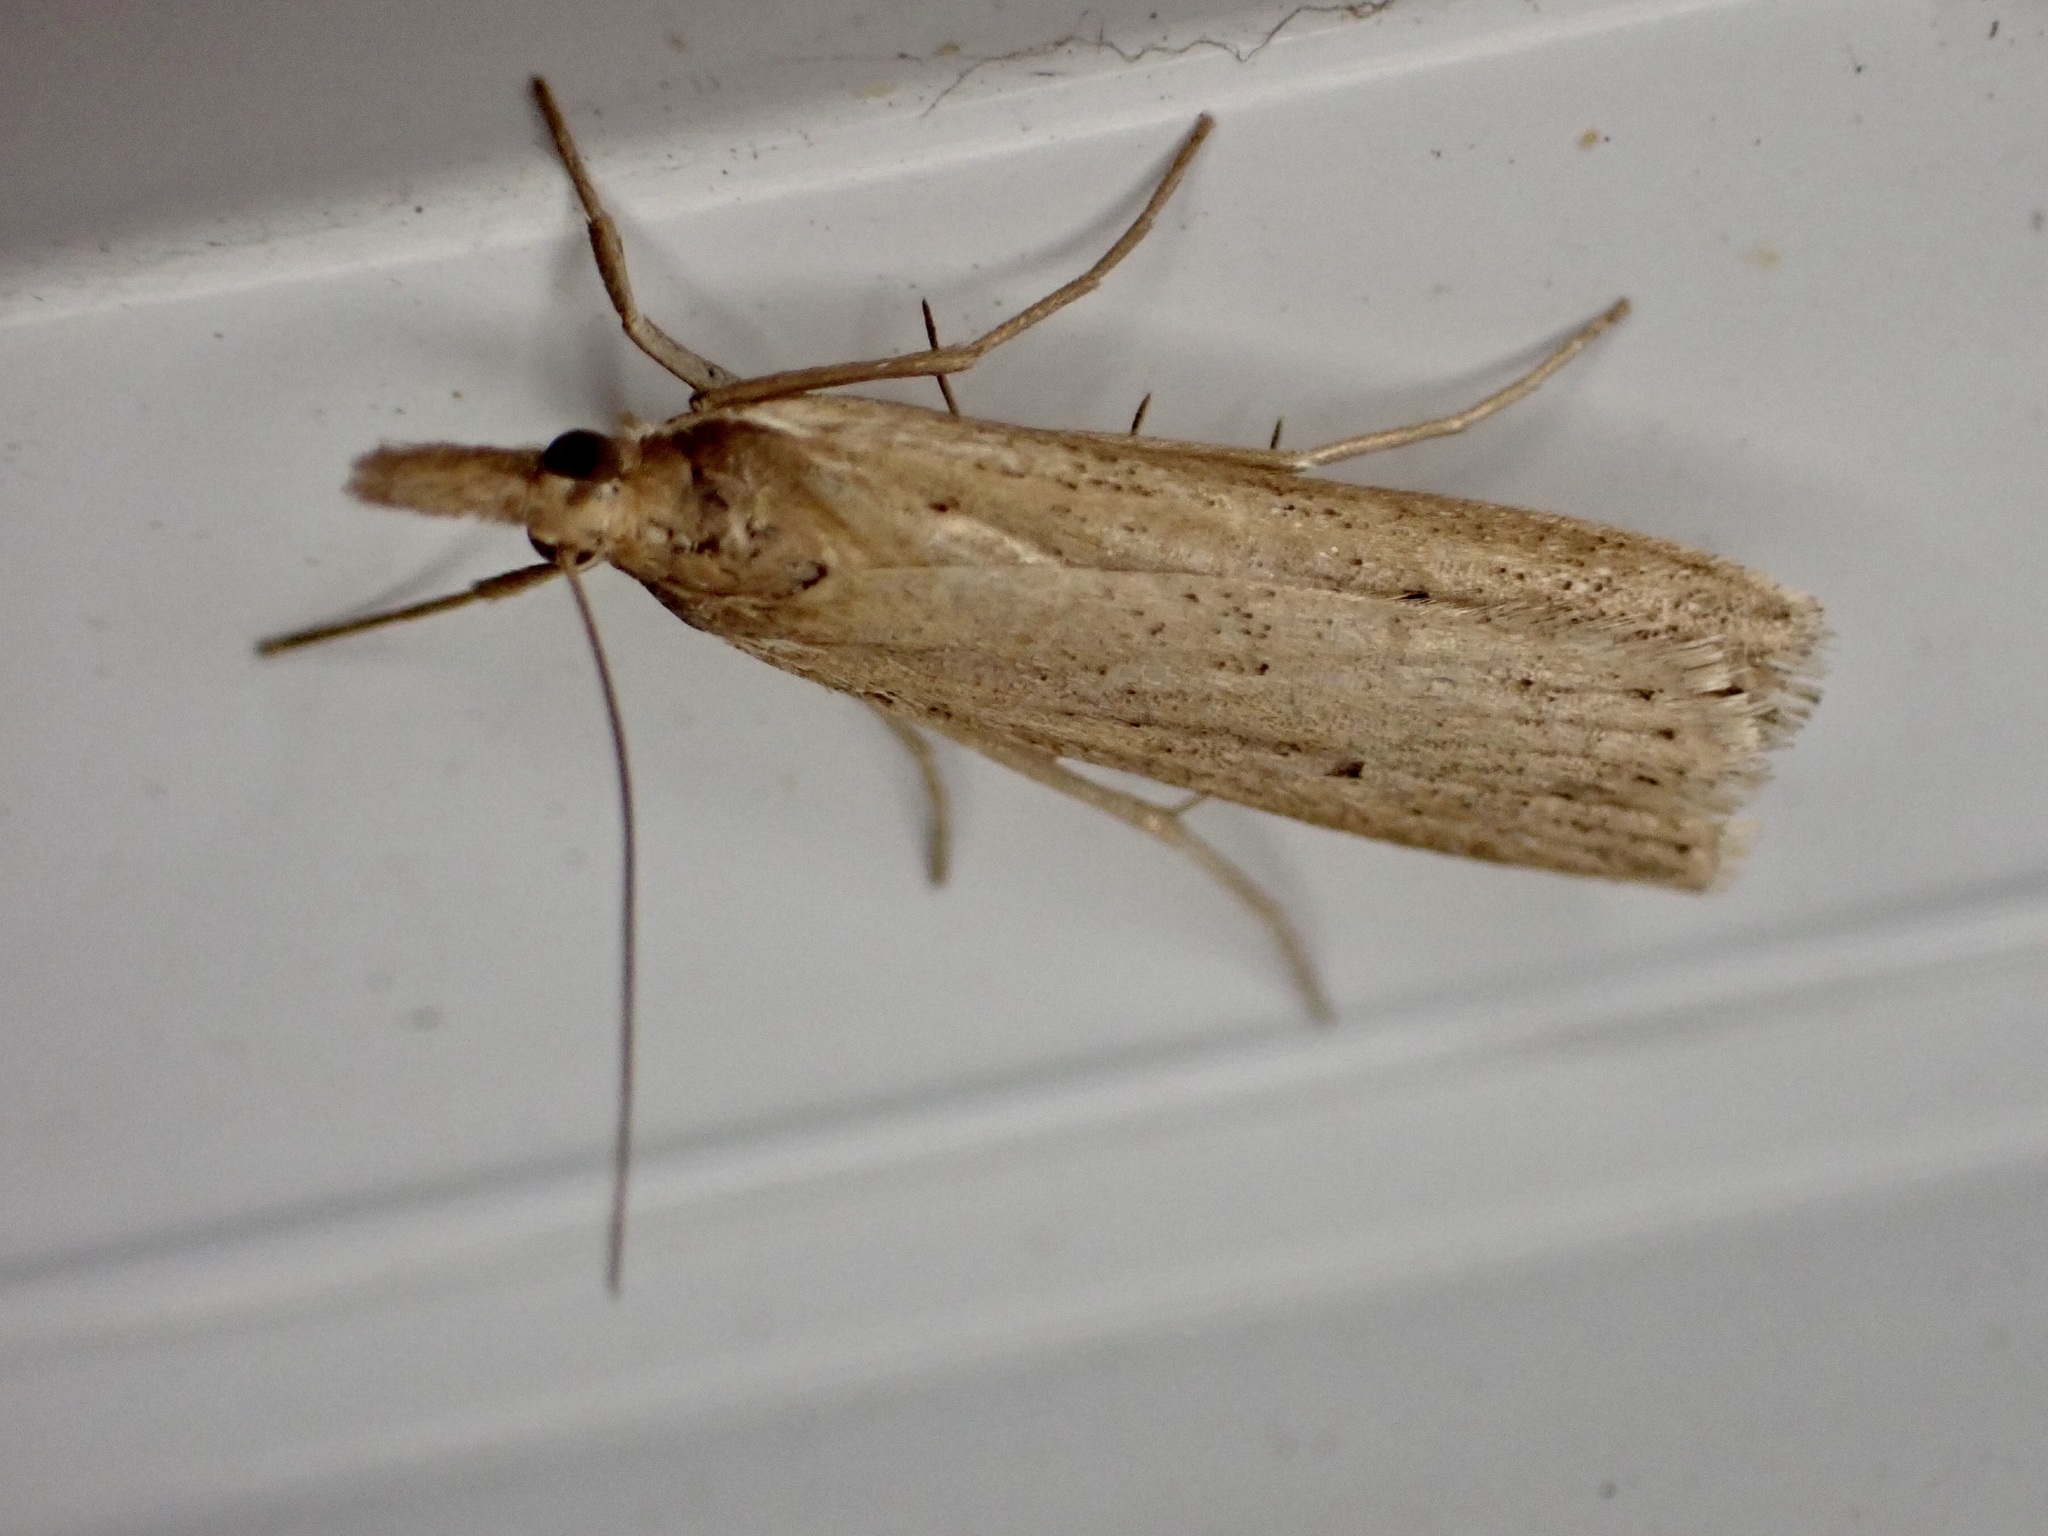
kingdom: Animalia
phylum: Arthropoda
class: Insecta
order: Lepidoptera
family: Crambidae
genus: Eudonia
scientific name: Eudonia sabulosella
